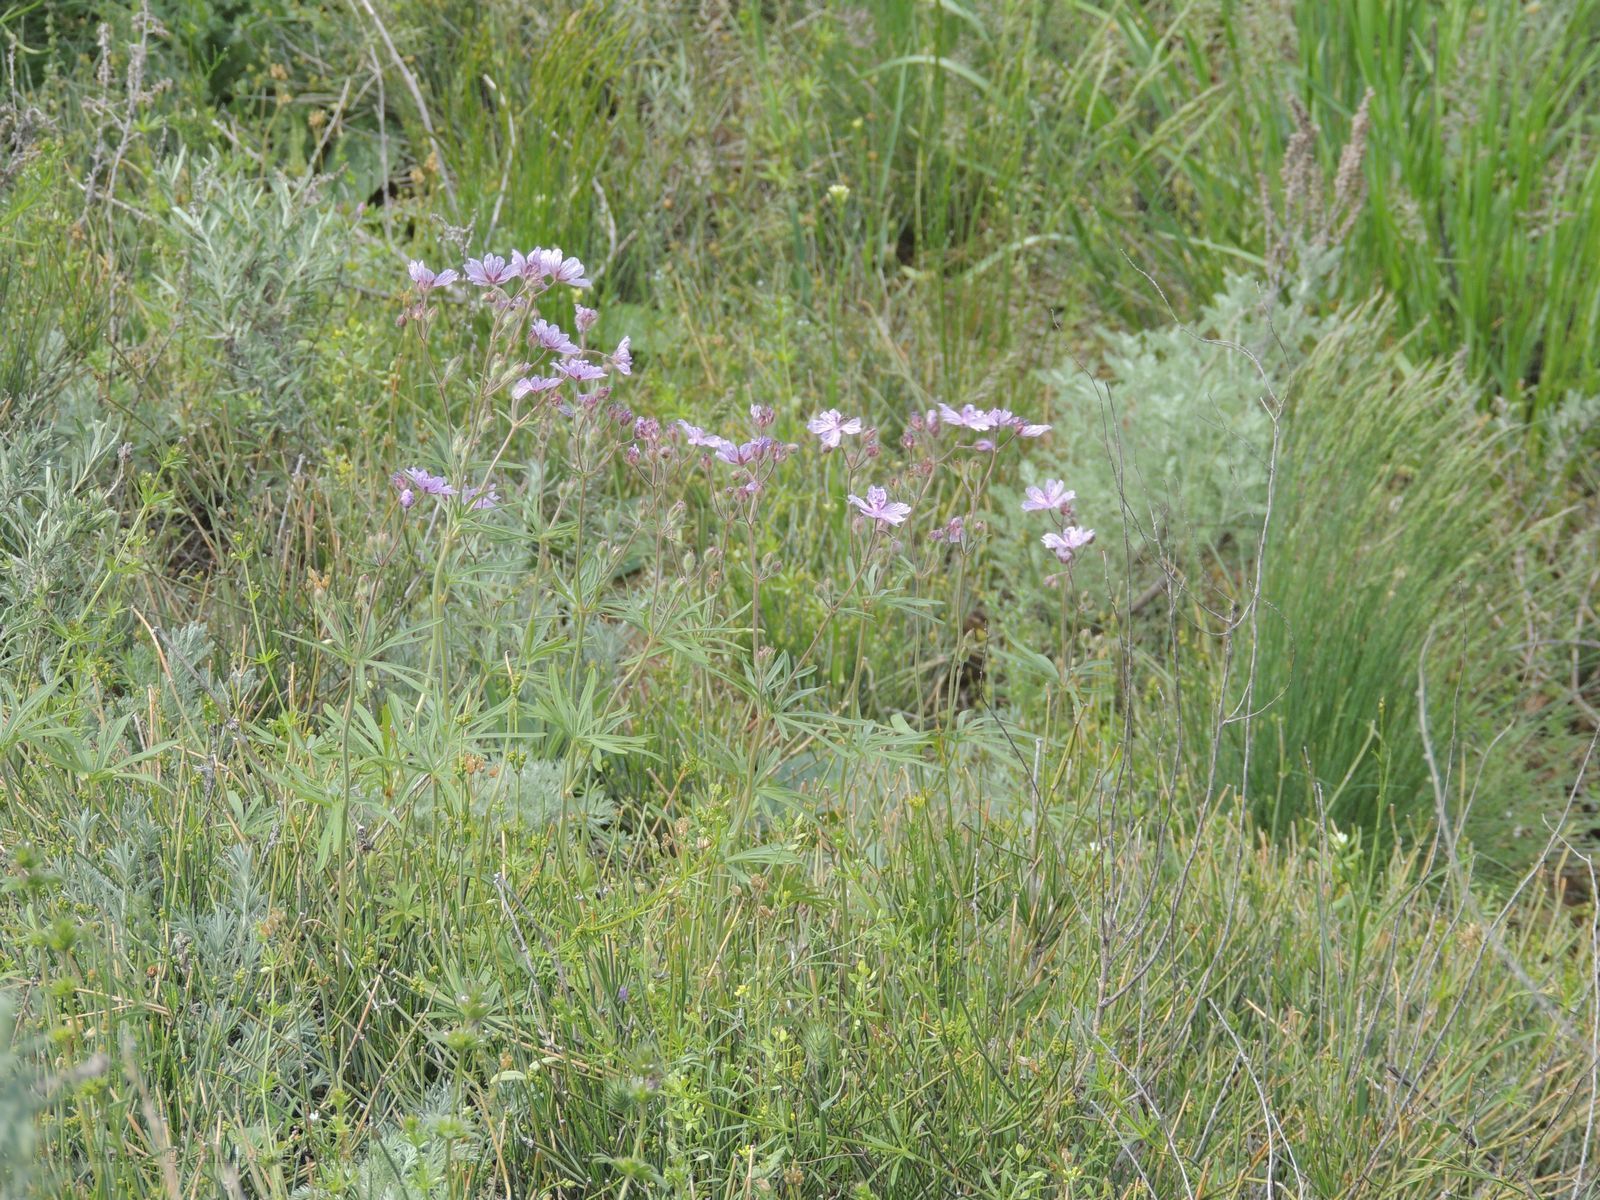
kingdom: Plantae
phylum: Tracheophyta
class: Magnoliopsida
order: Geraniales
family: Geraniaceae
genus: Geranium
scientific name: Geranium linearilobum
